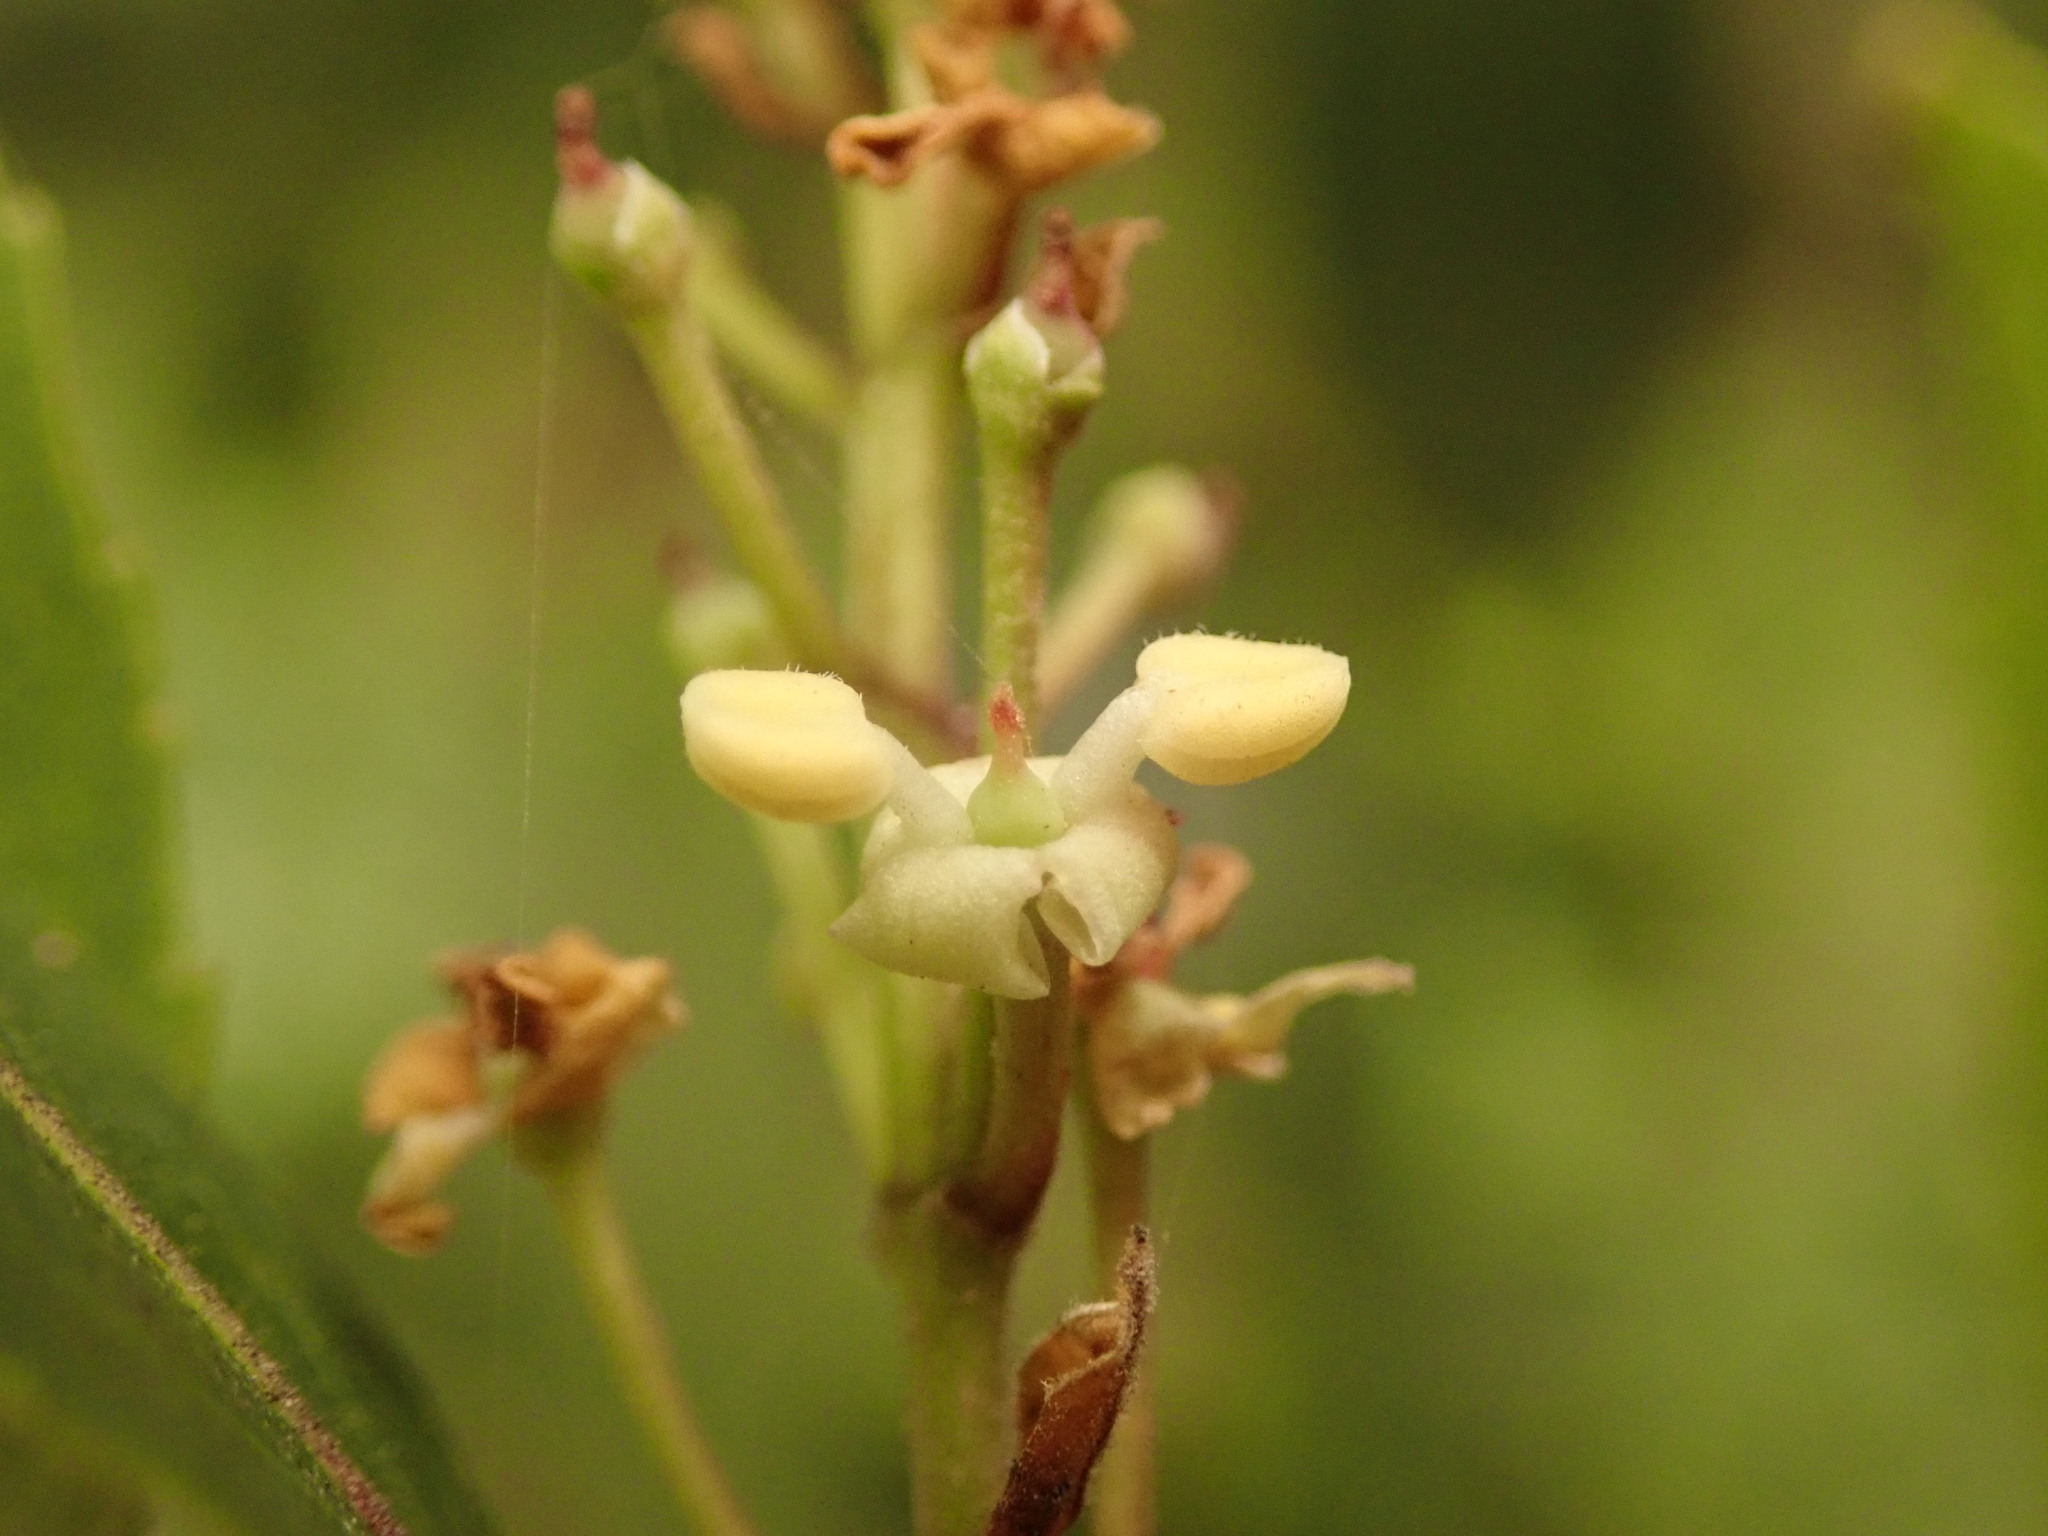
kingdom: Plantae
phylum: Tracheophyta
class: Magnoliopsida
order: Lamiales
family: Oleaceae
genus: Phillyrea
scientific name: Phillyrea latifolia
